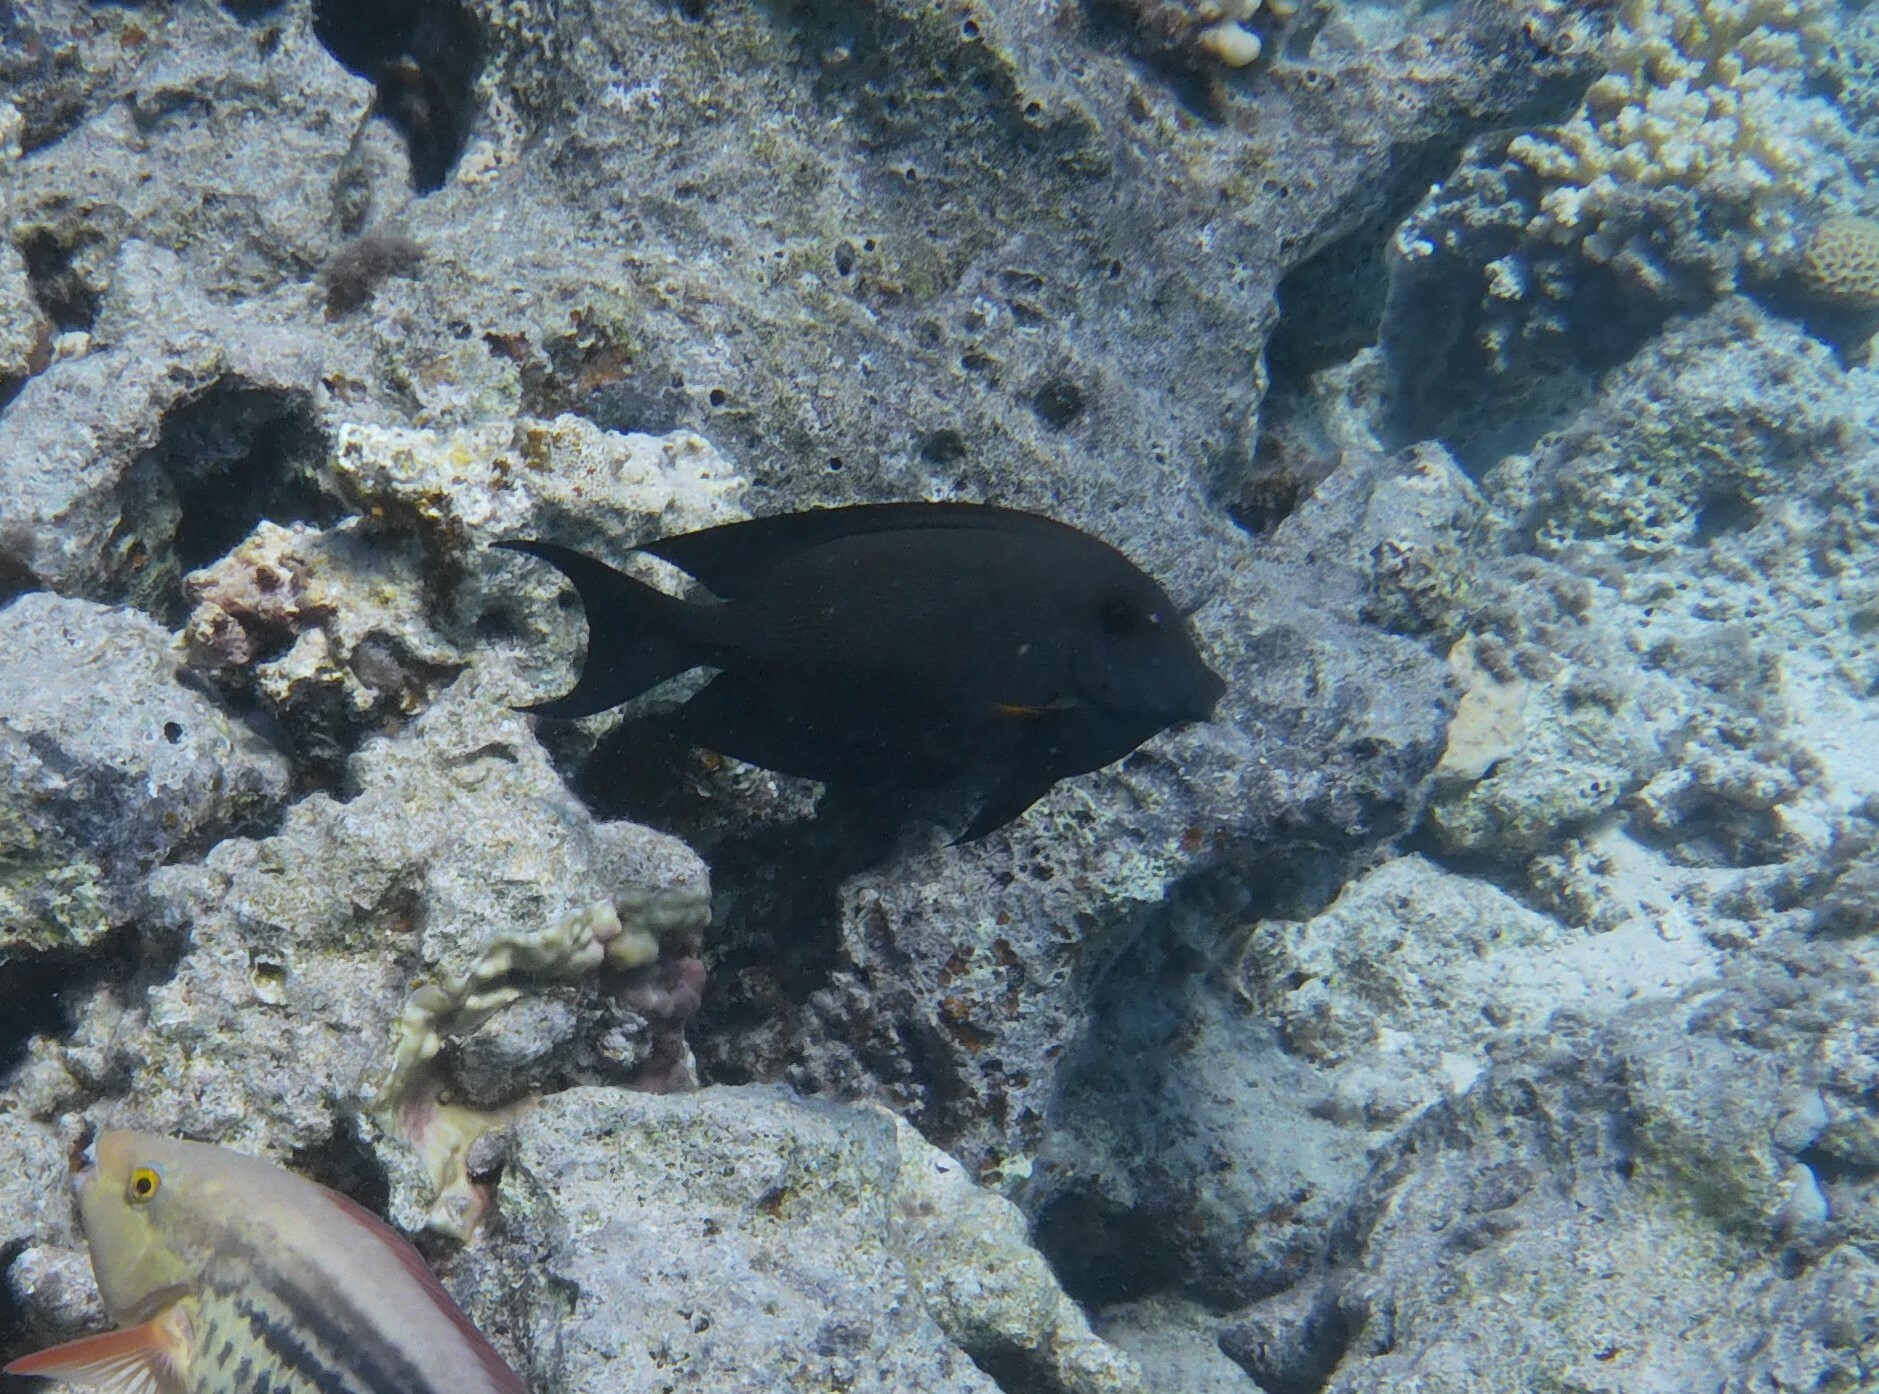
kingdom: Animalia
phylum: Chordata
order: Perciformes
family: Acanthuridae
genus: Ctenochaetus
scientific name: Ctenochaetus striatus
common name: Bristle-toothed surgeonfish
